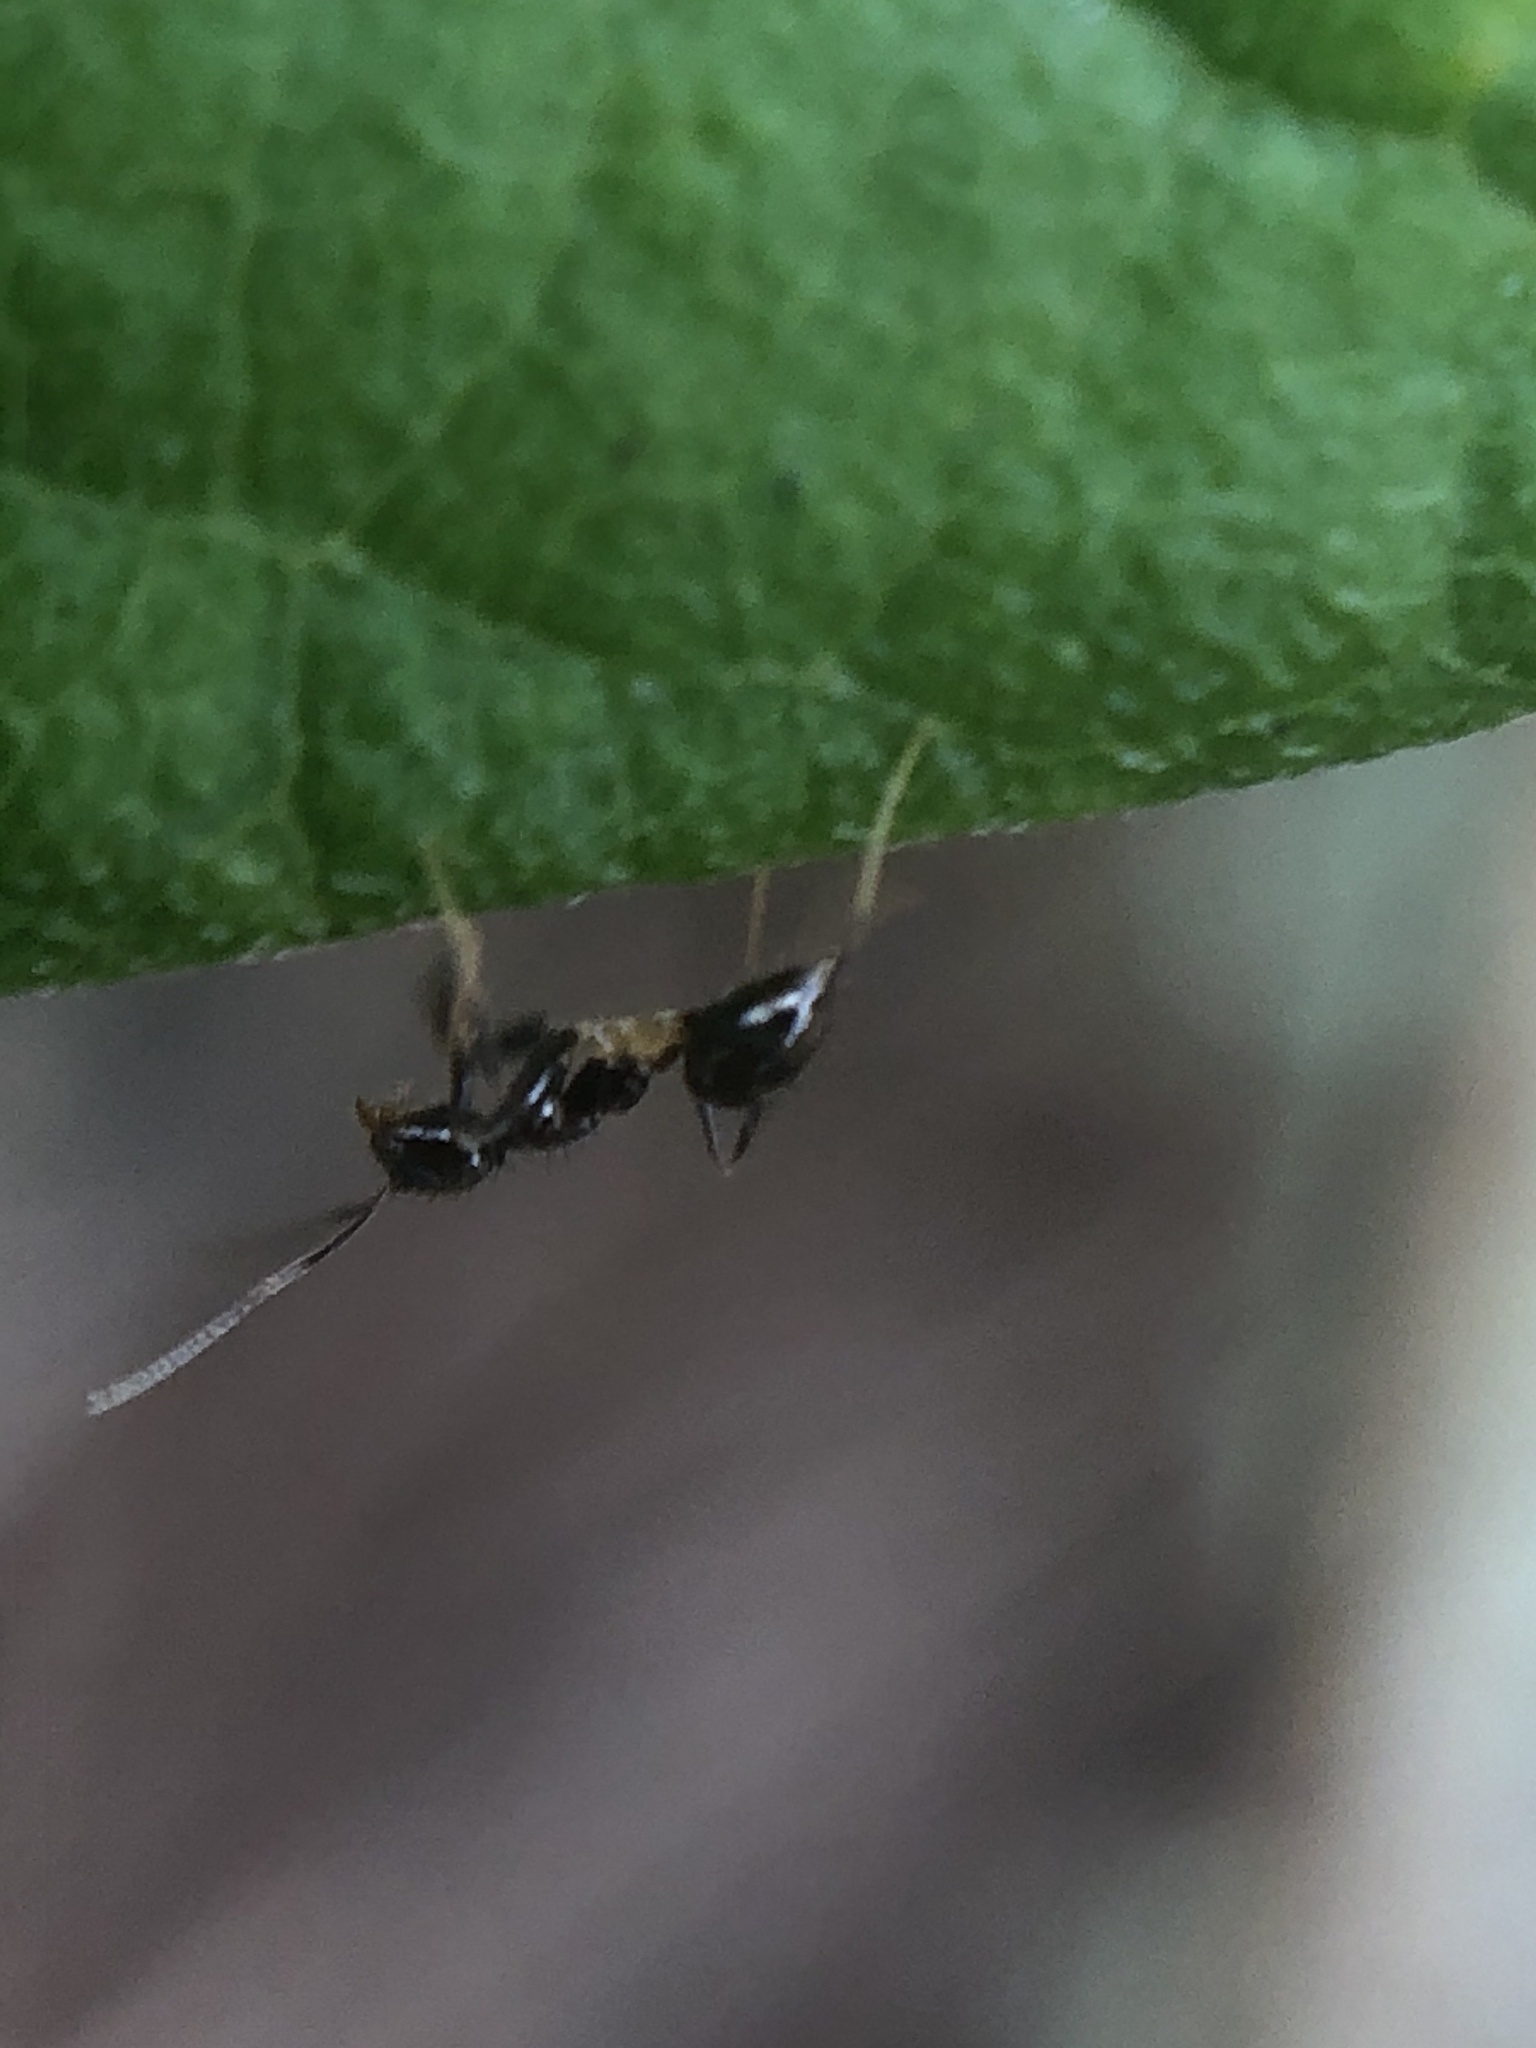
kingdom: Animalia
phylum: Arthropoda
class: Insecta
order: Hymenoptera
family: Formicidae
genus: Nylanderia
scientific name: Nylanderia steinheili
